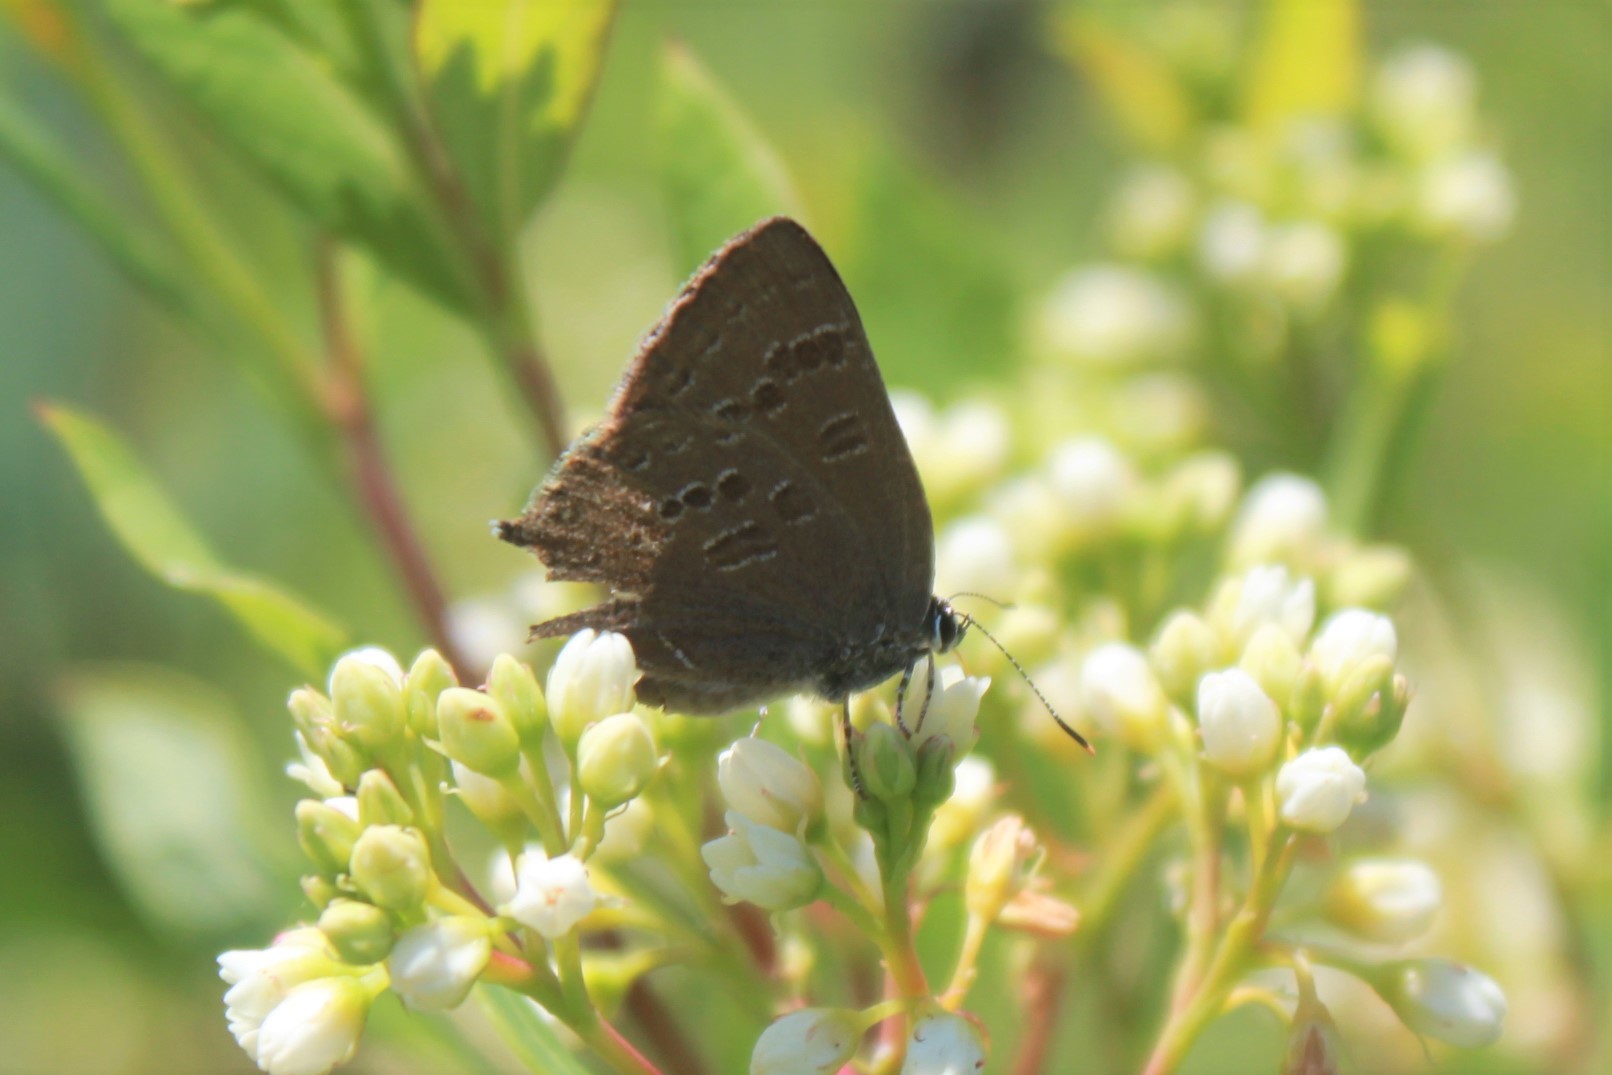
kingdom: Animalia
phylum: Arthropoda
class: Insecta
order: Lepidoptera
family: Lycaenidae
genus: Strymon
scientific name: Strymon caryaevorus
